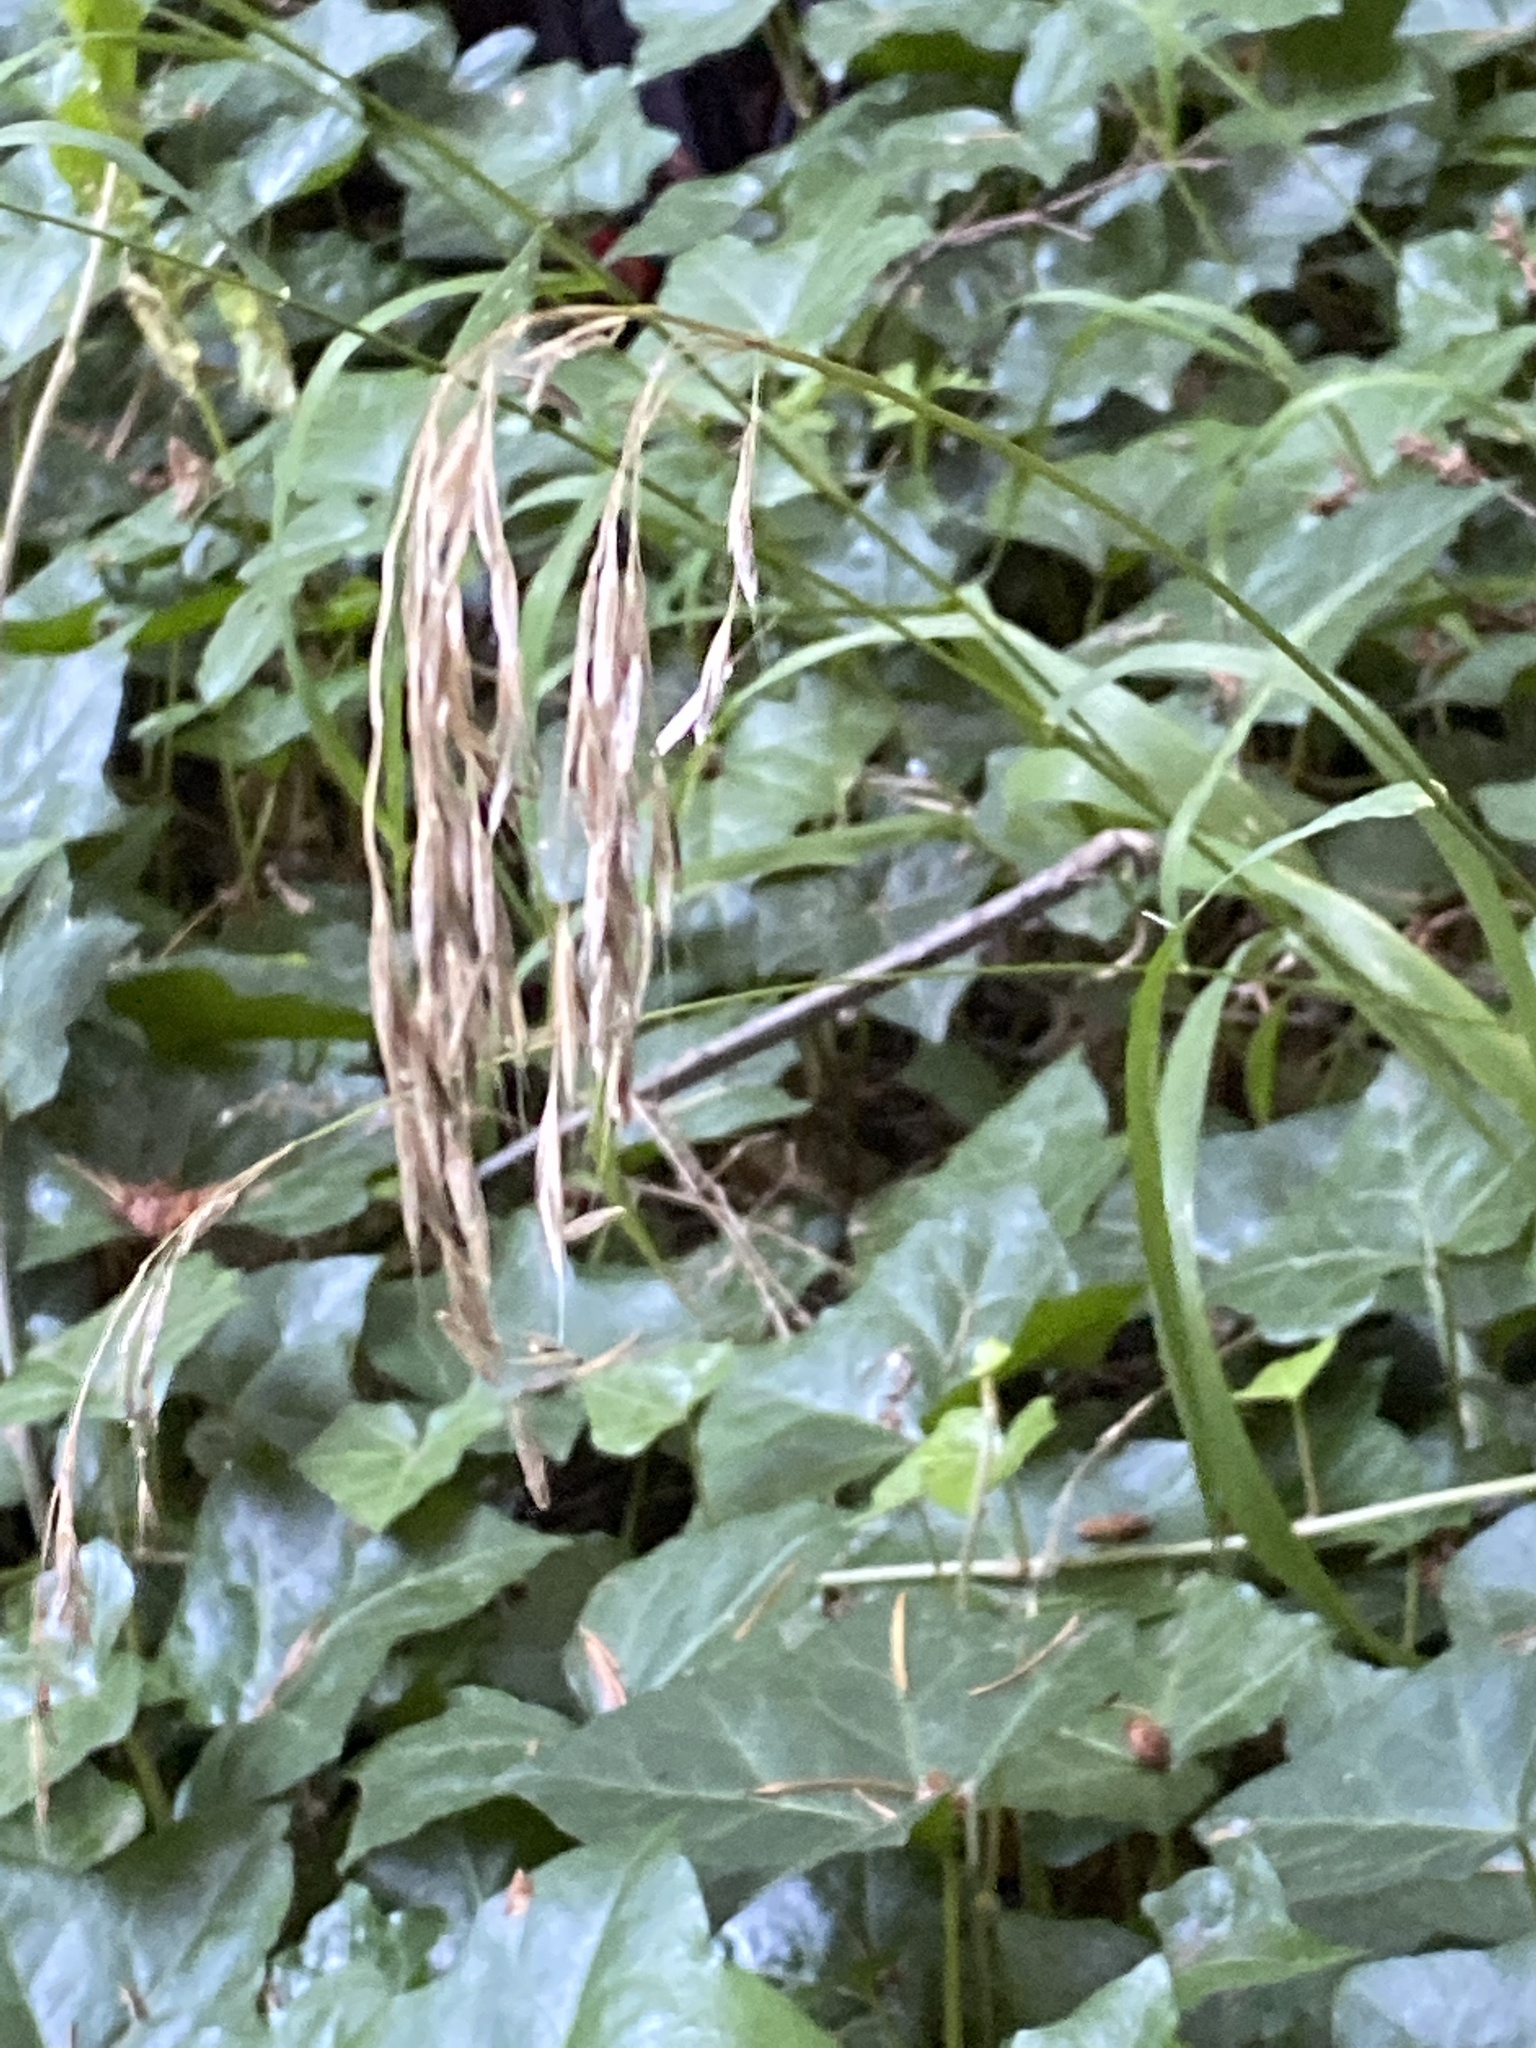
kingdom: Plantae
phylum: Tracheophyta
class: Liliopsida
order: Poales
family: Poaceae
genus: Bromus
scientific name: Bromus vulgaris
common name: Columbia brome
